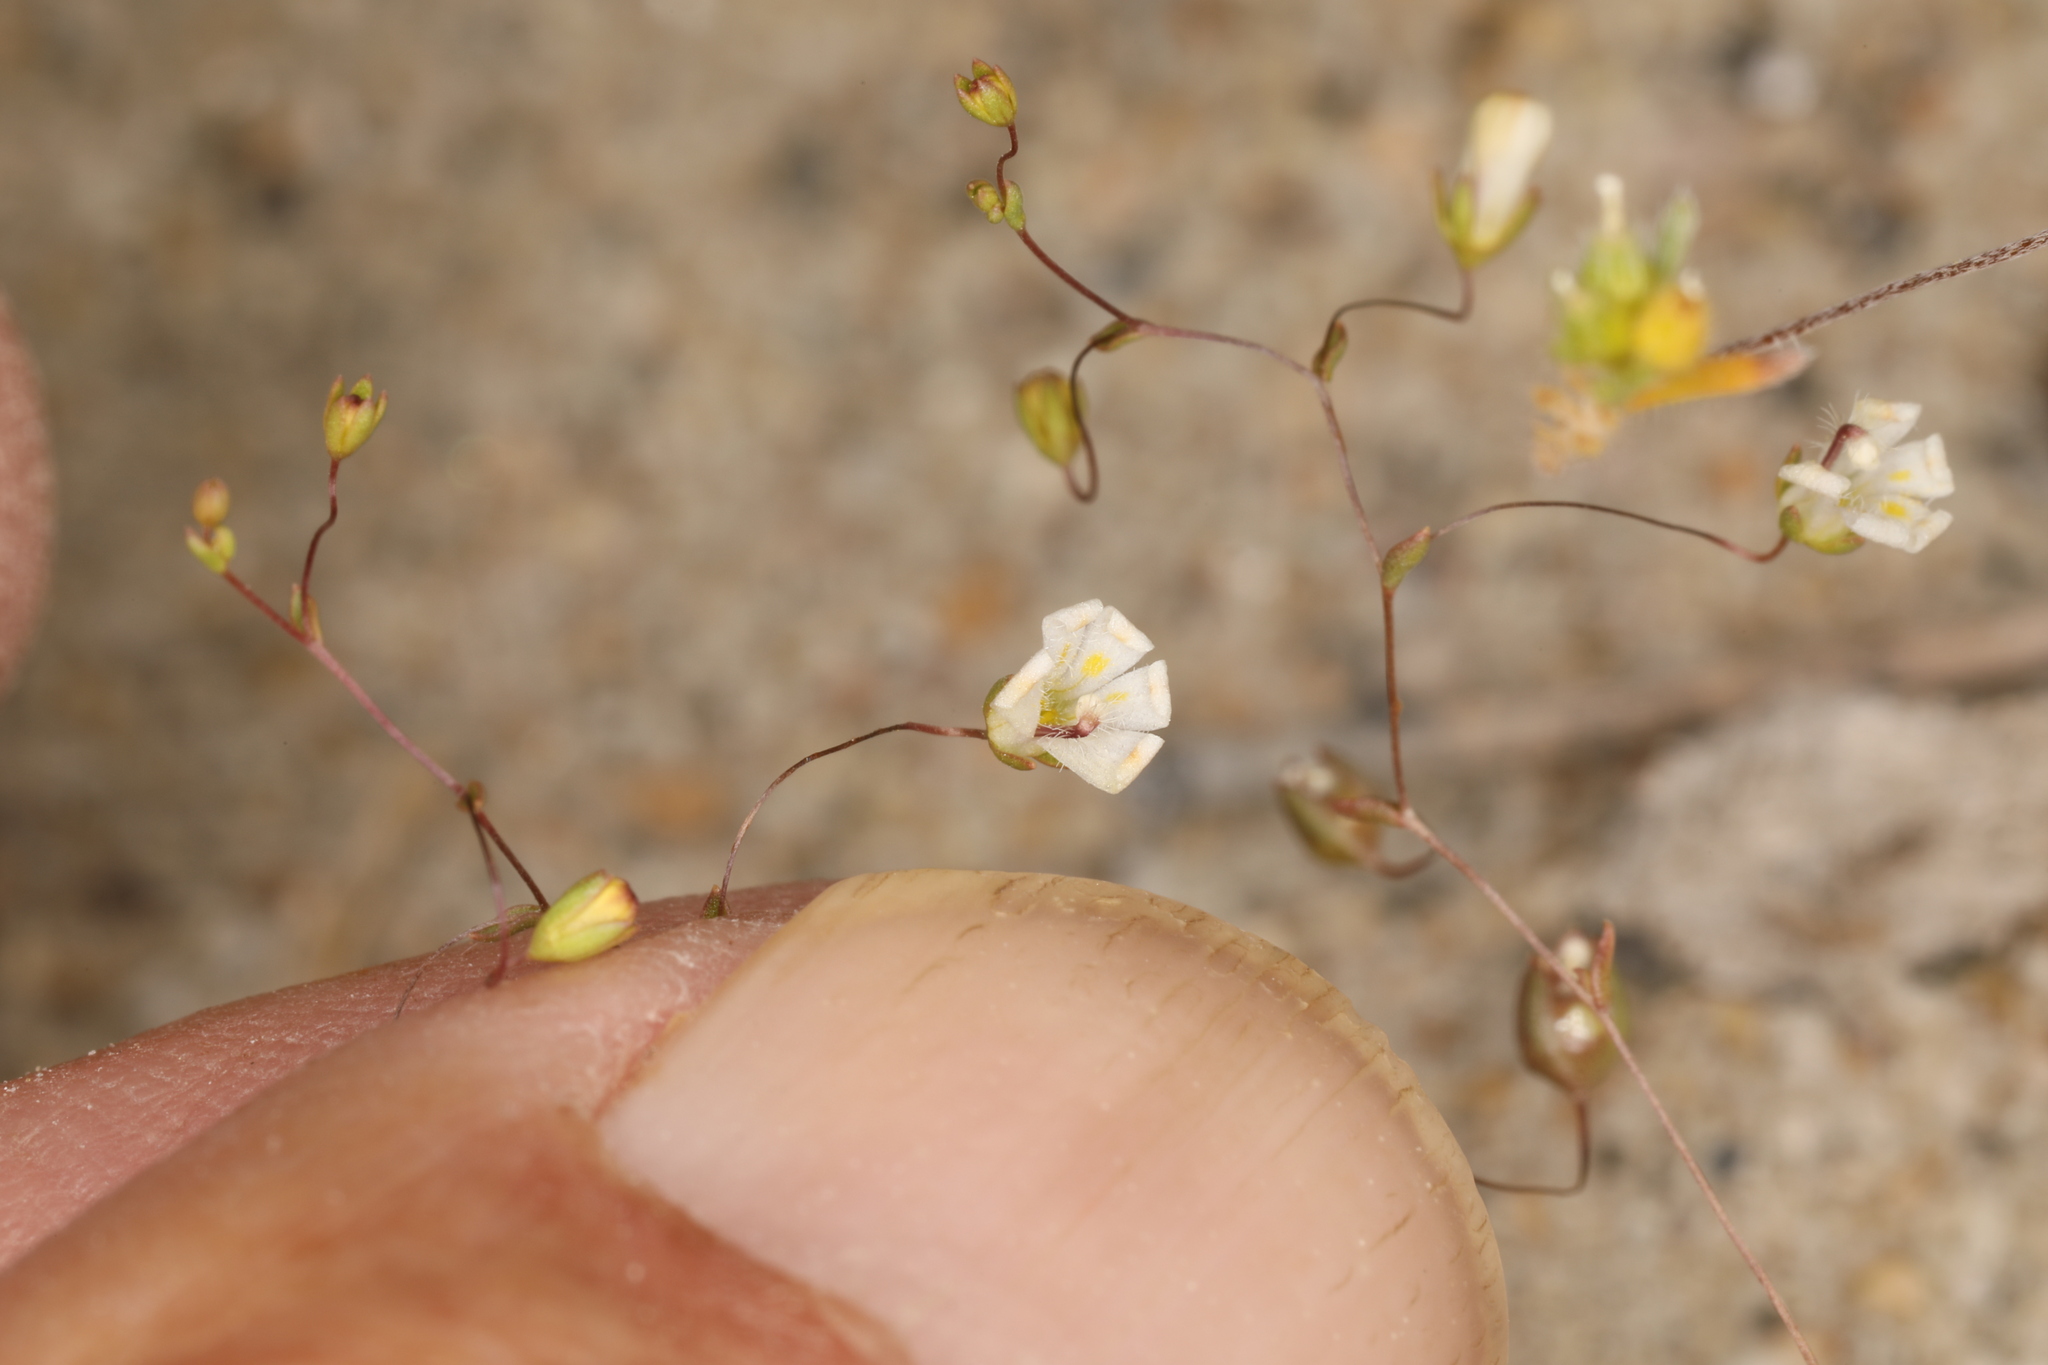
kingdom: Plantae
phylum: Tracheophyta
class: Magnoliopsida
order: Asterales
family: Campanulaceae
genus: Nemacladus
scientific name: Nemacladus matsonii
